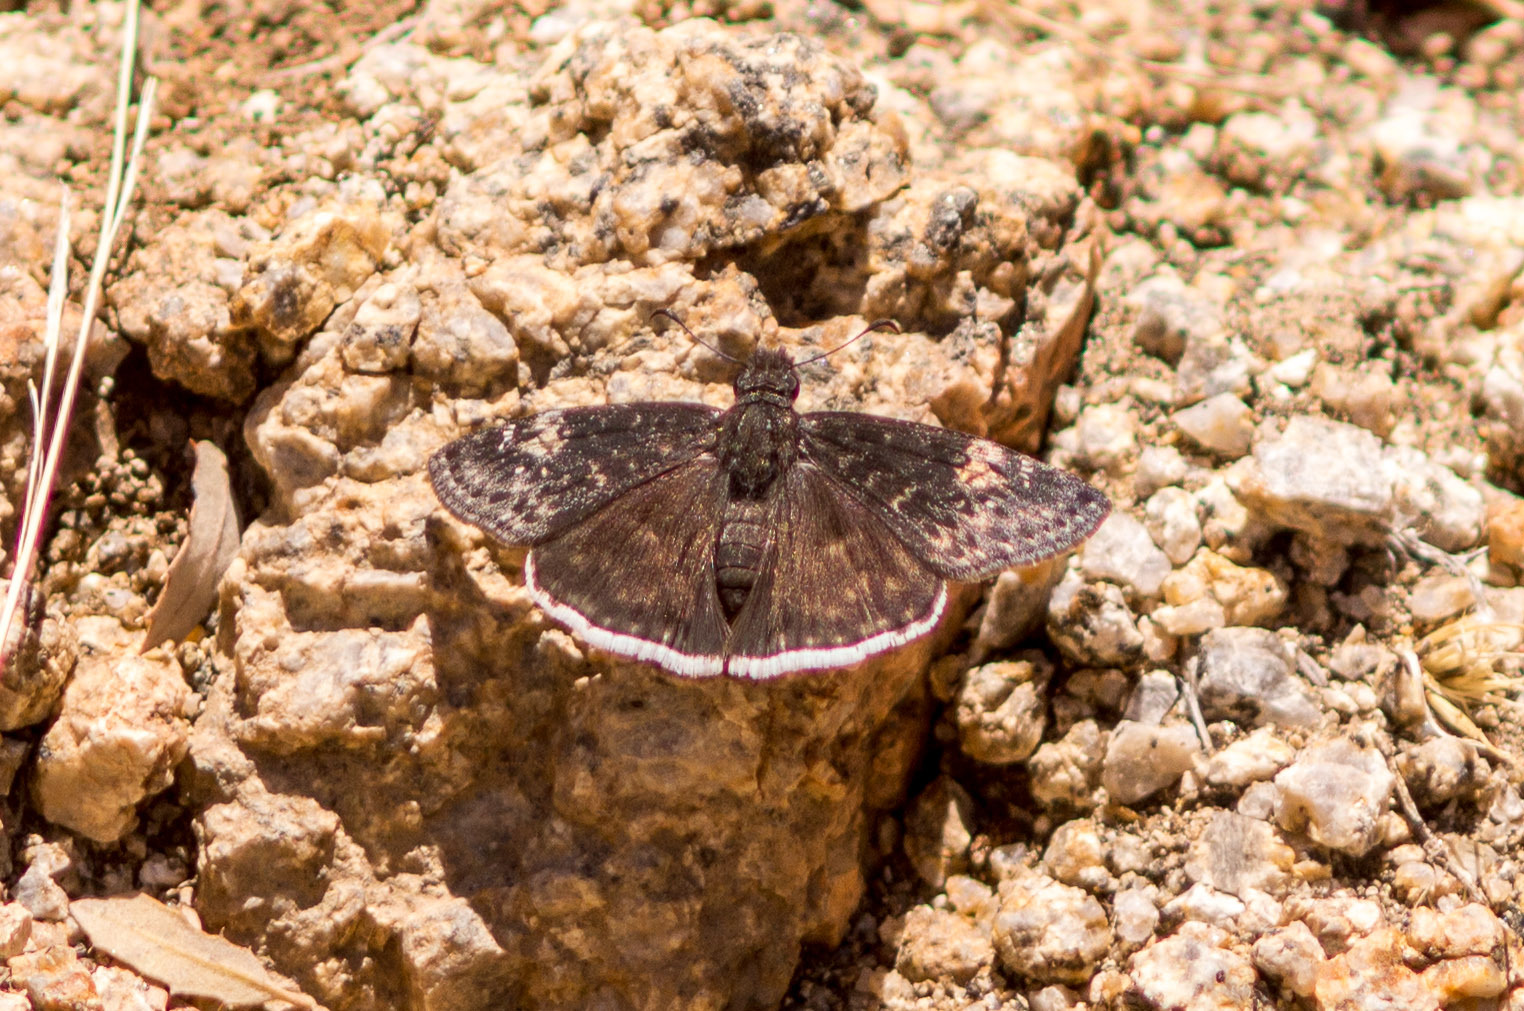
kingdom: Animalia
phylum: Arthropoda
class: Insecta
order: Lepidoptera
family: Hesperiidae
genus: Erynnis
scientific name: Erynnis funeralis
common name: Funereal duskywing
